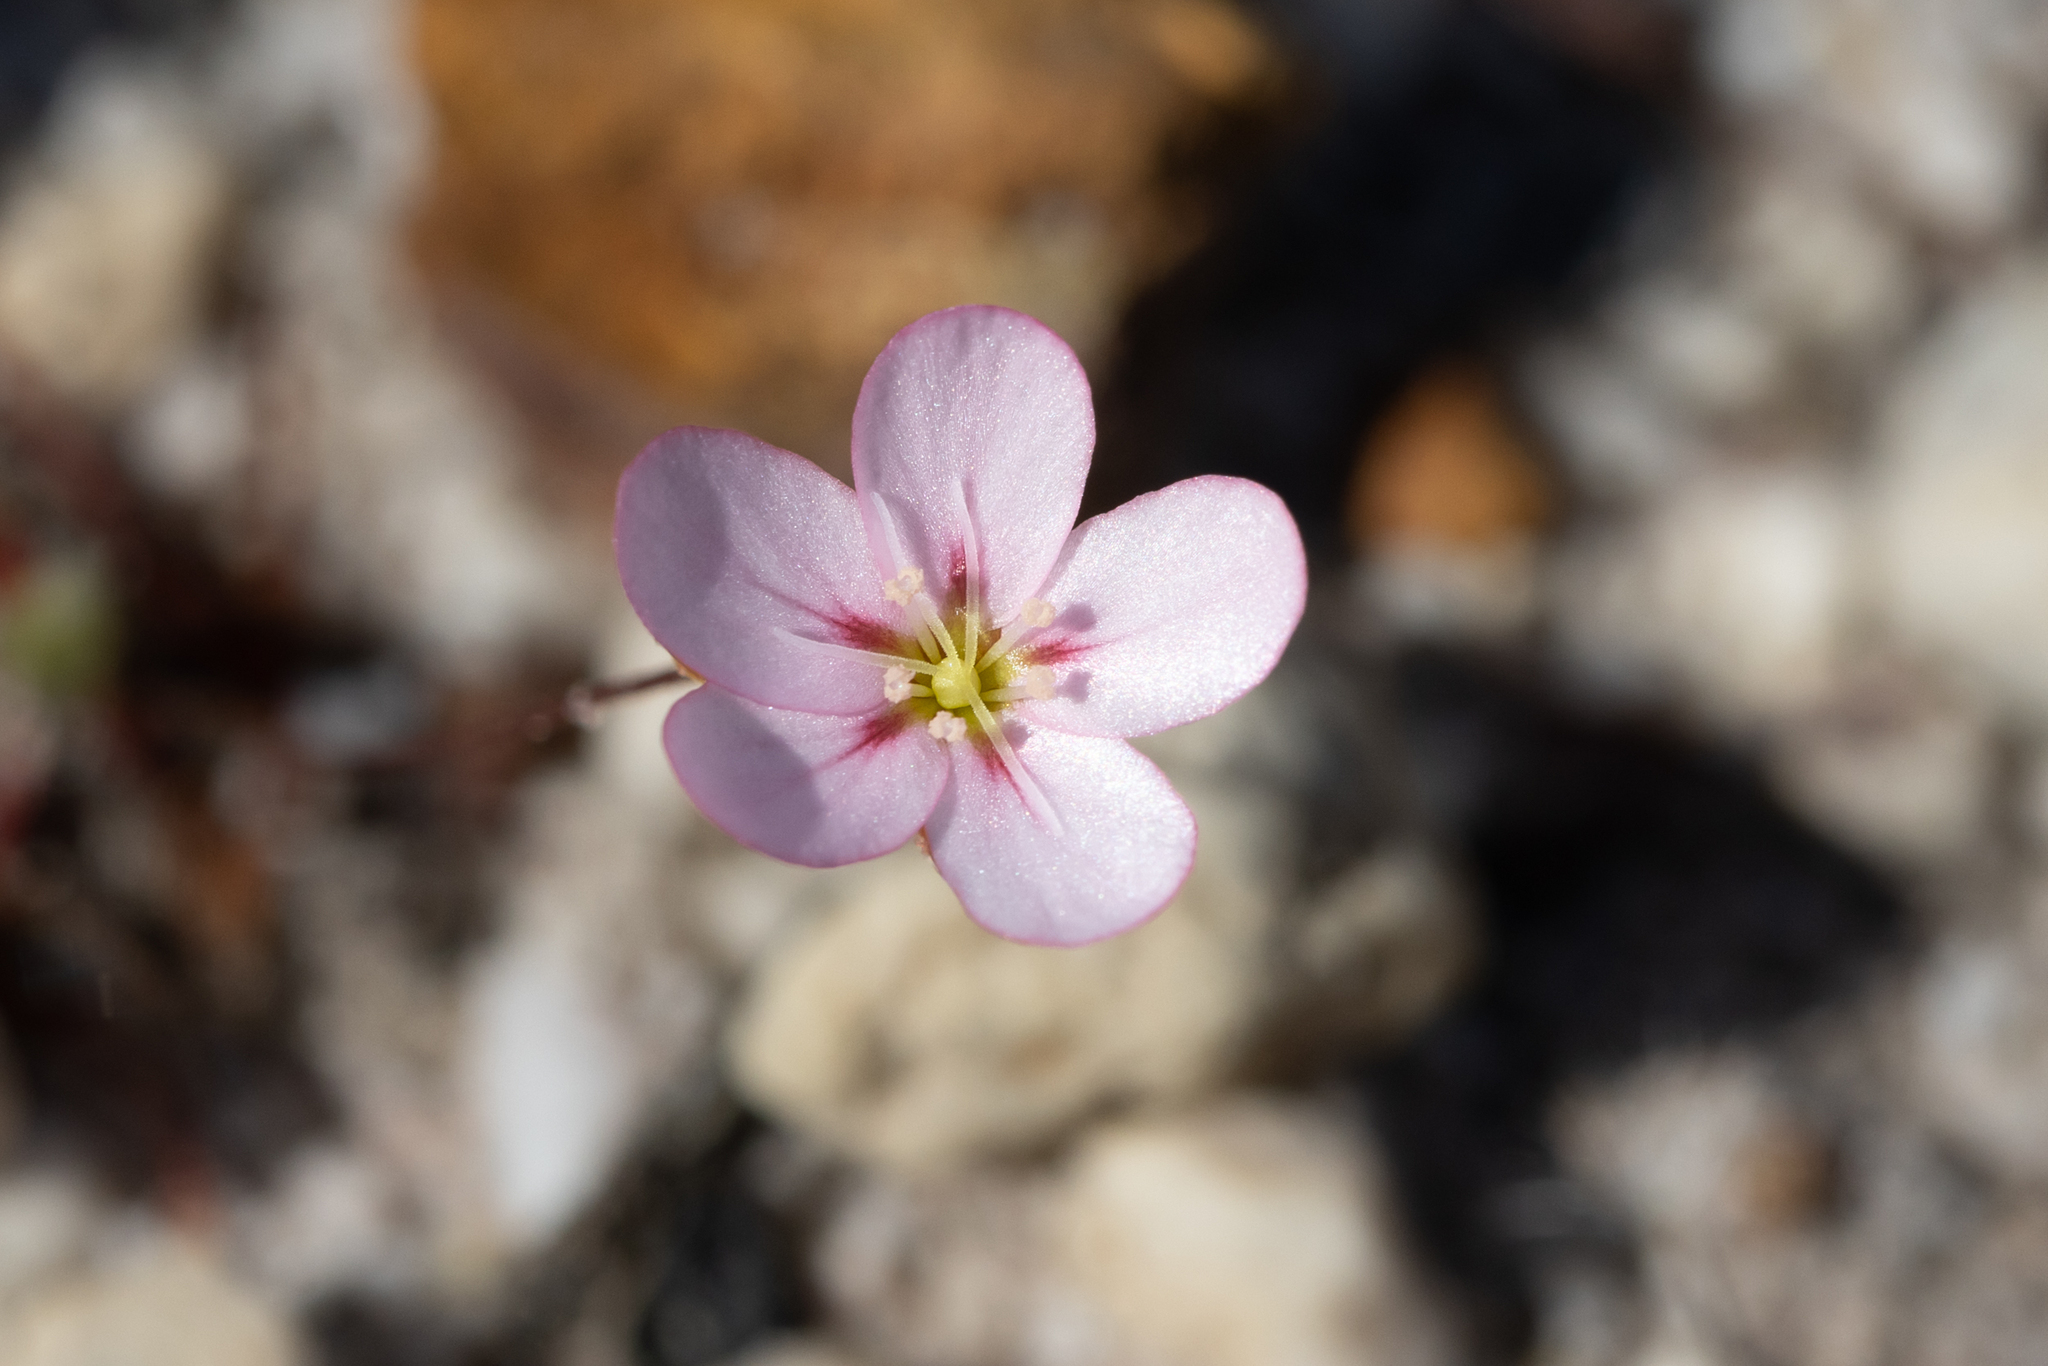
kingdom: Plantae
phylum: Tracheophyta
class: Magnoliopsida
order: Caryophyllales
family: Droseraceae
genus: Drosera
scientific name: Drosera androsacea
